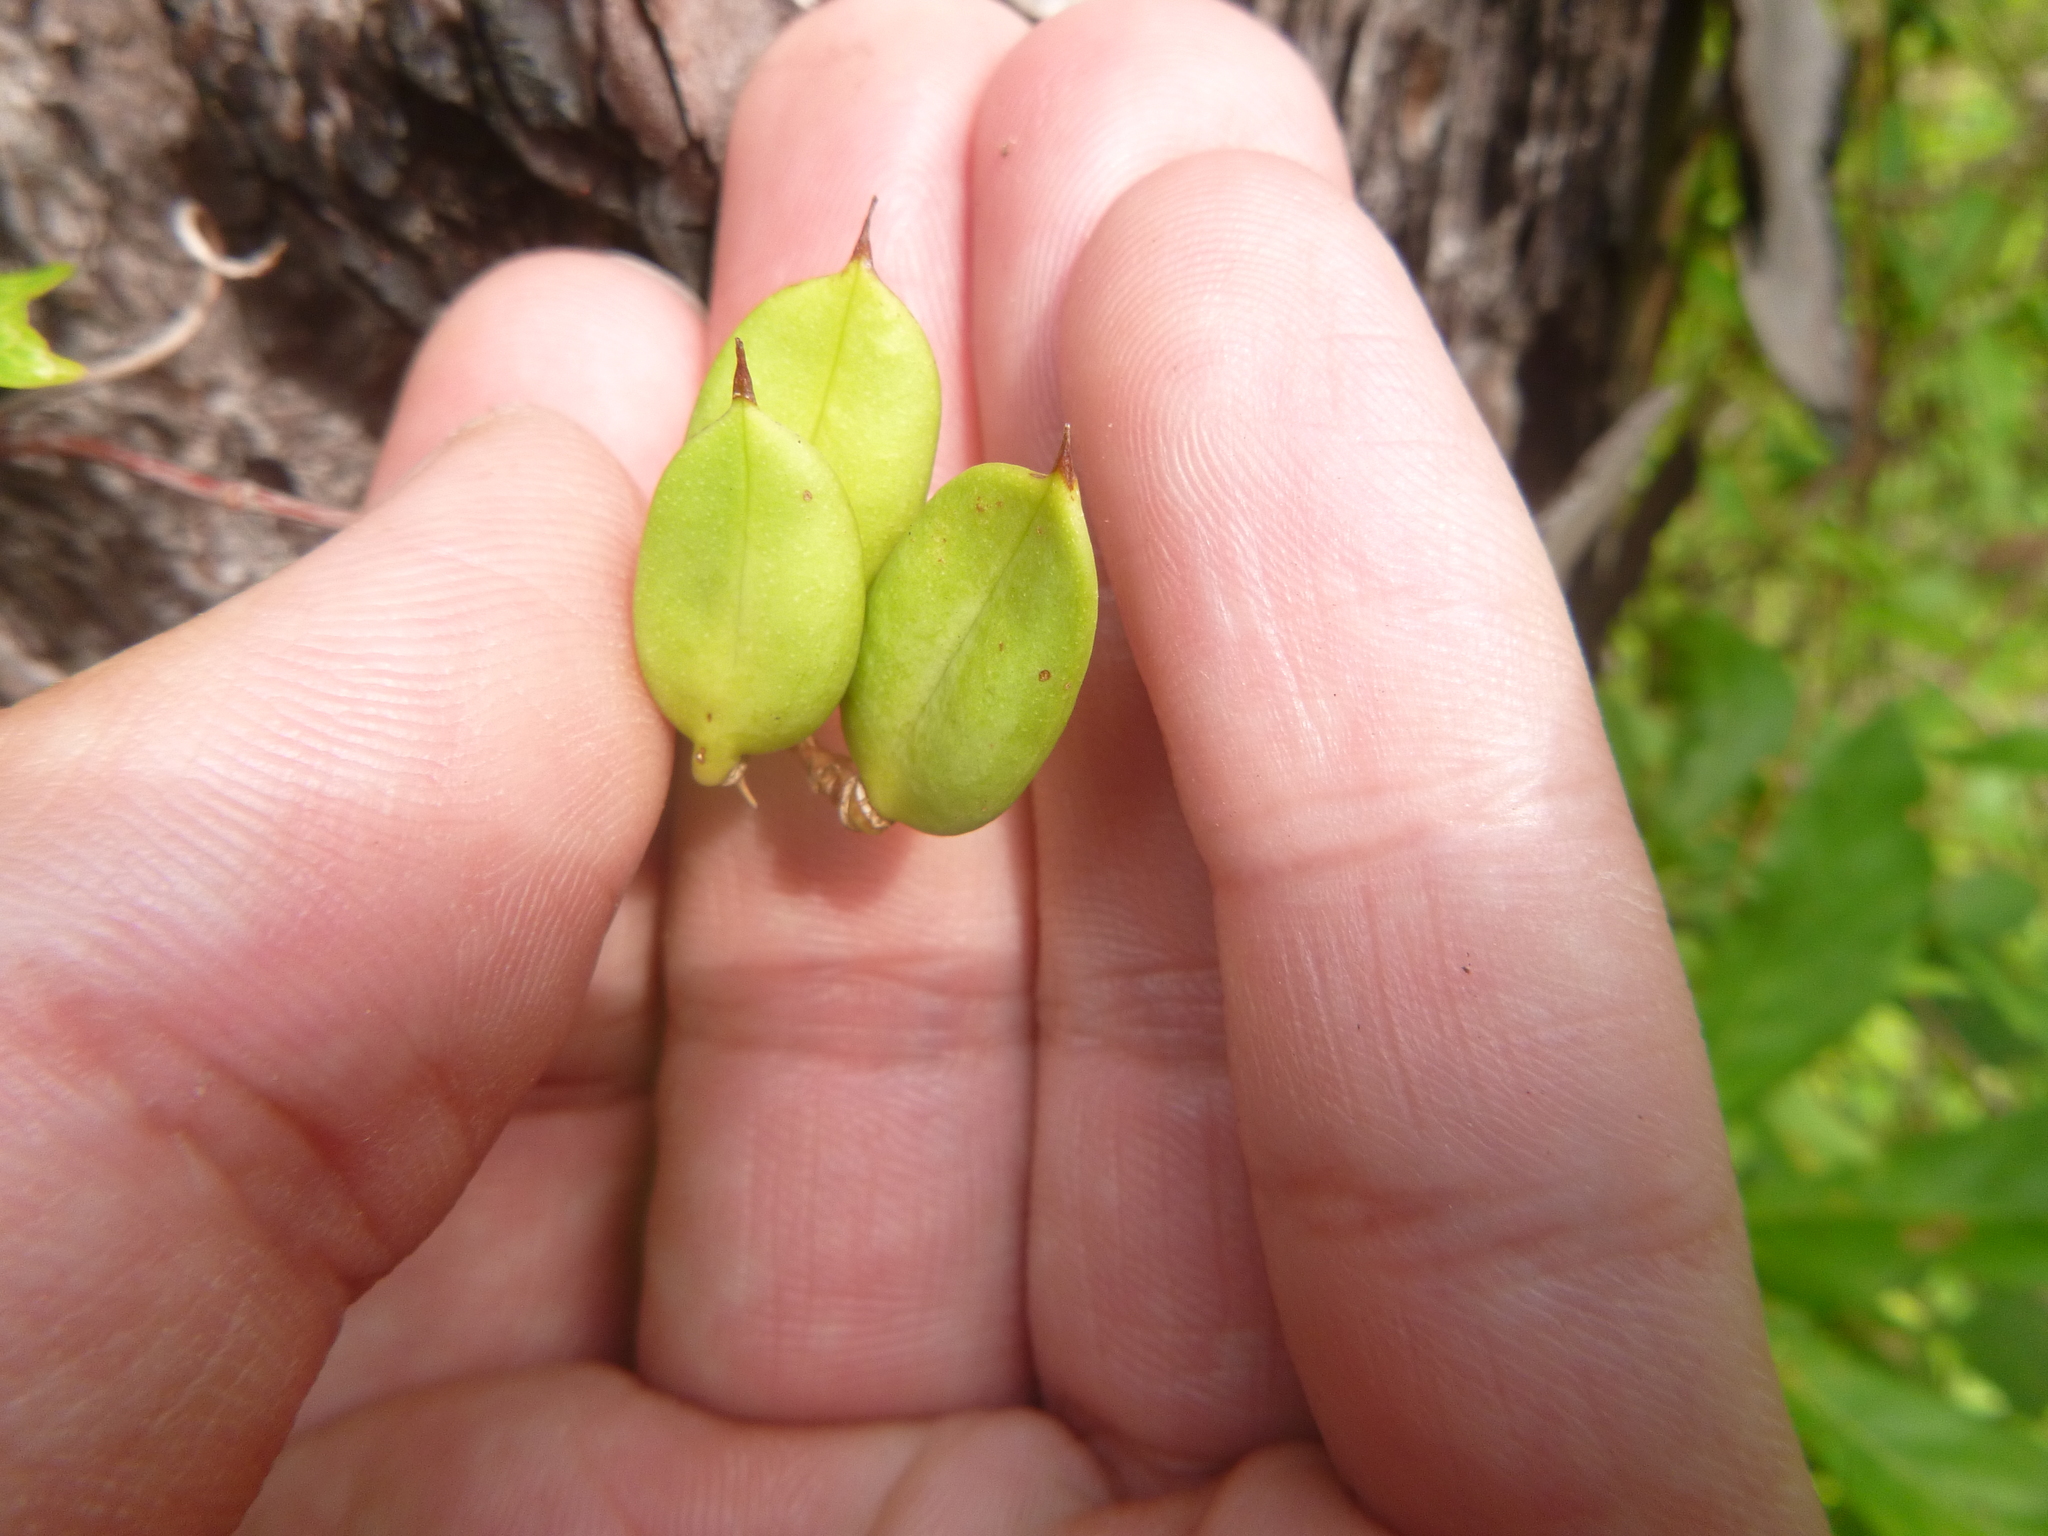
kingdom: Plantae
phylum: Tracheophyta
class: Magnoliopsida
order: Gentianales
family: Gelsemiaceae
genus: Gelsemium
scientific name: Gelsemium sempervirens
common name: Carolina-jasmine
